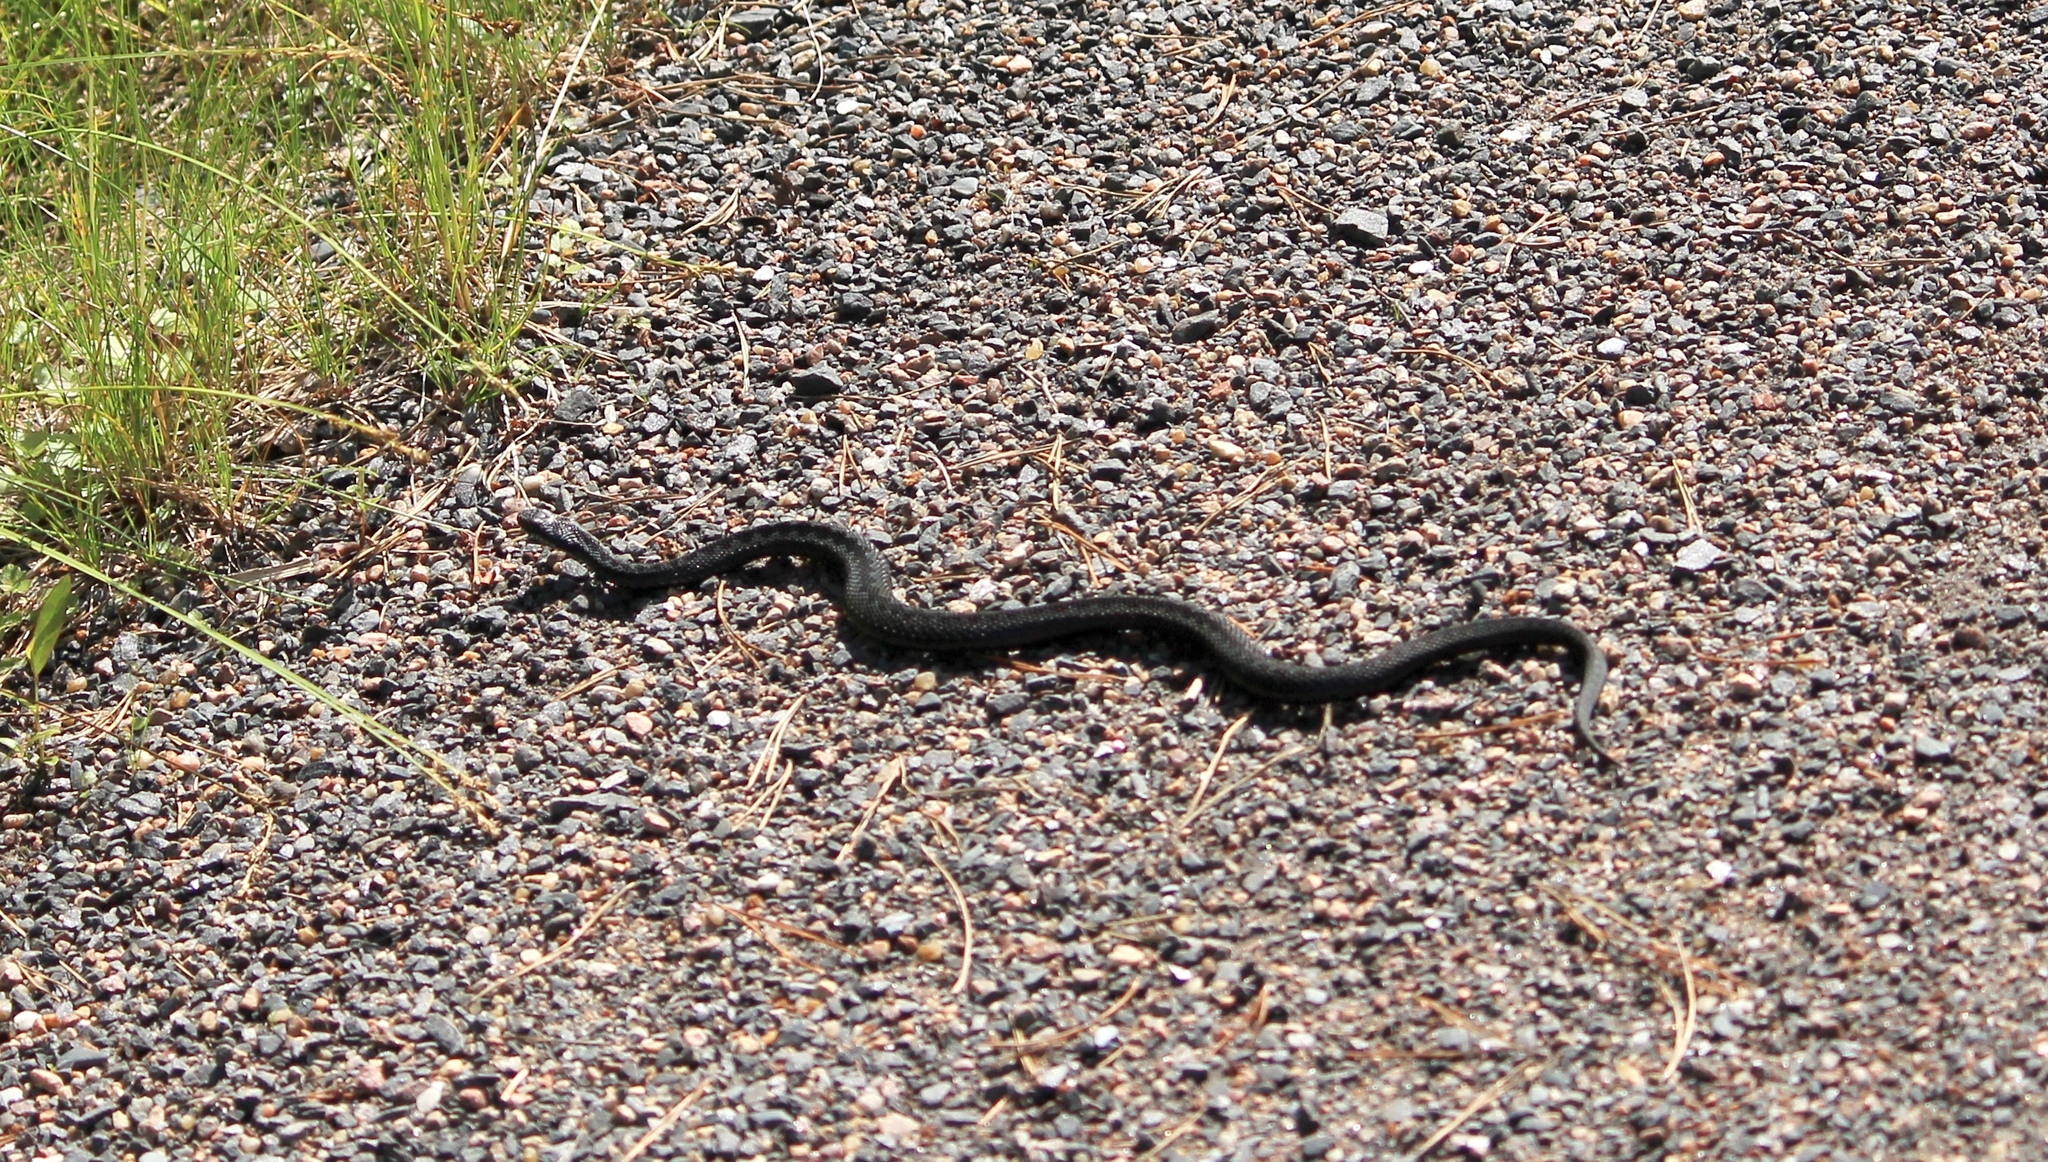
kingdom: Animalia
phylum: Chordata
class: Squamata
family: Viperidae
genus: Vipera
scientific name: Vipera berus
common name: Adder
